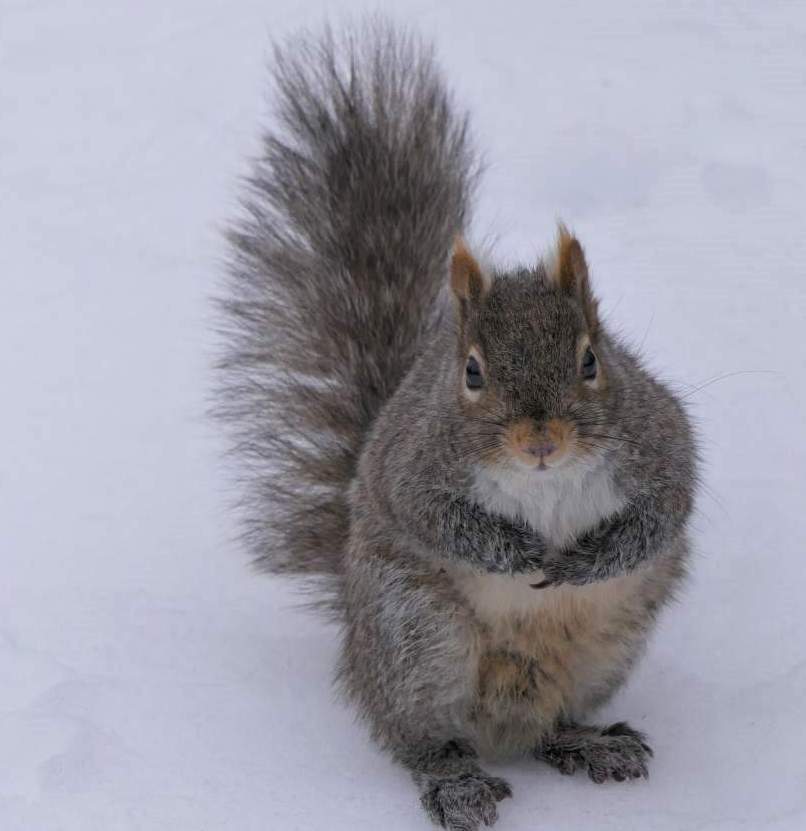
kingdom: Animalia
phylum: Chordata
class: Mammalia
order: Rodentia
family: Sciuridae
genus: Sciurus
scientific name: Sciurus carolinensis
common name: Eastern gray squirrel
